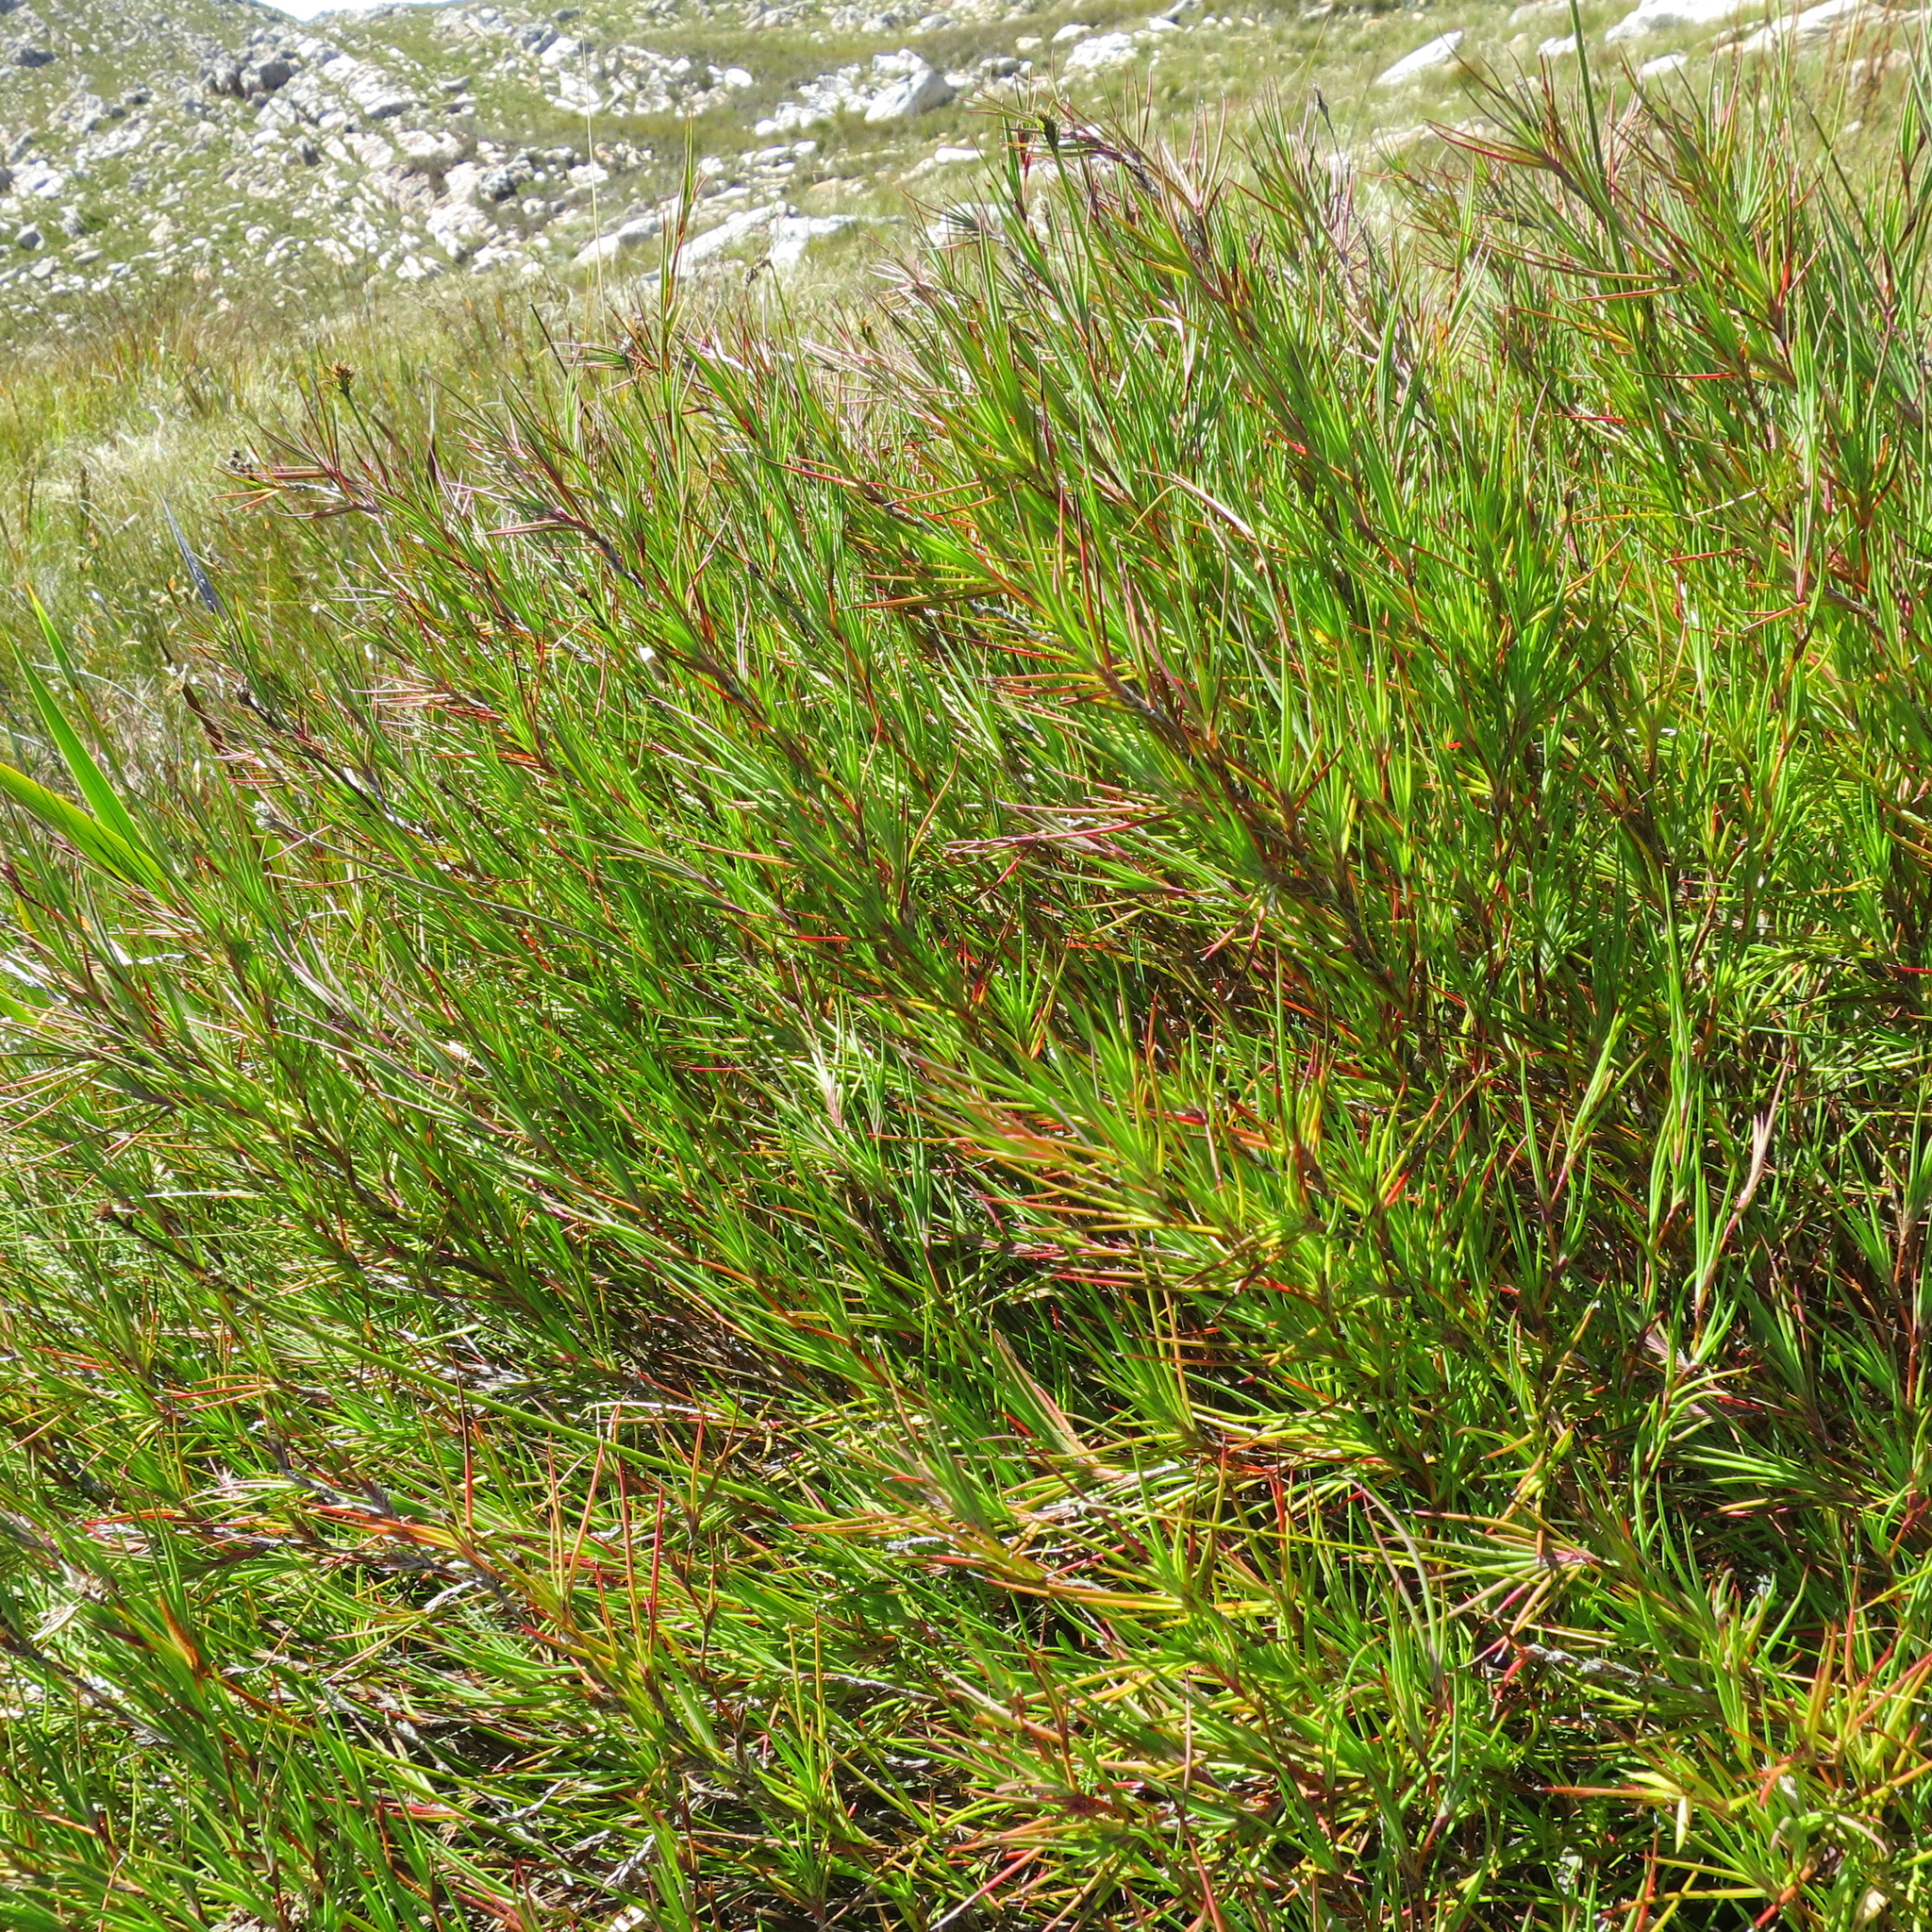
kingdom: Plantae
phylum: Tracheophyta
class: Magnoliopsida
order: Rosales
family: Rosaceae
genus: Cliffortia
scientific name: Cliffortia aculeata
